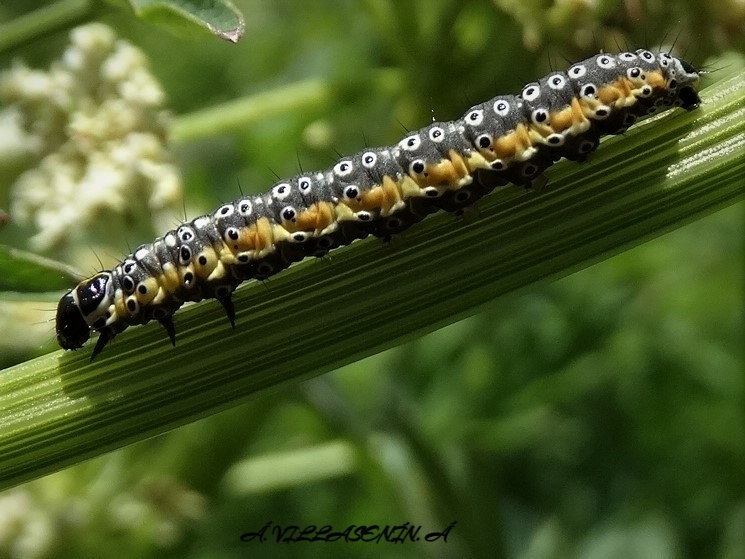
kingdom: Animalia
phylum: Arthropoda
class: Insecta
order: Lepidoptera
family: Depressariidae
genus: Depressaria
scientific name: Depressaria apiella
